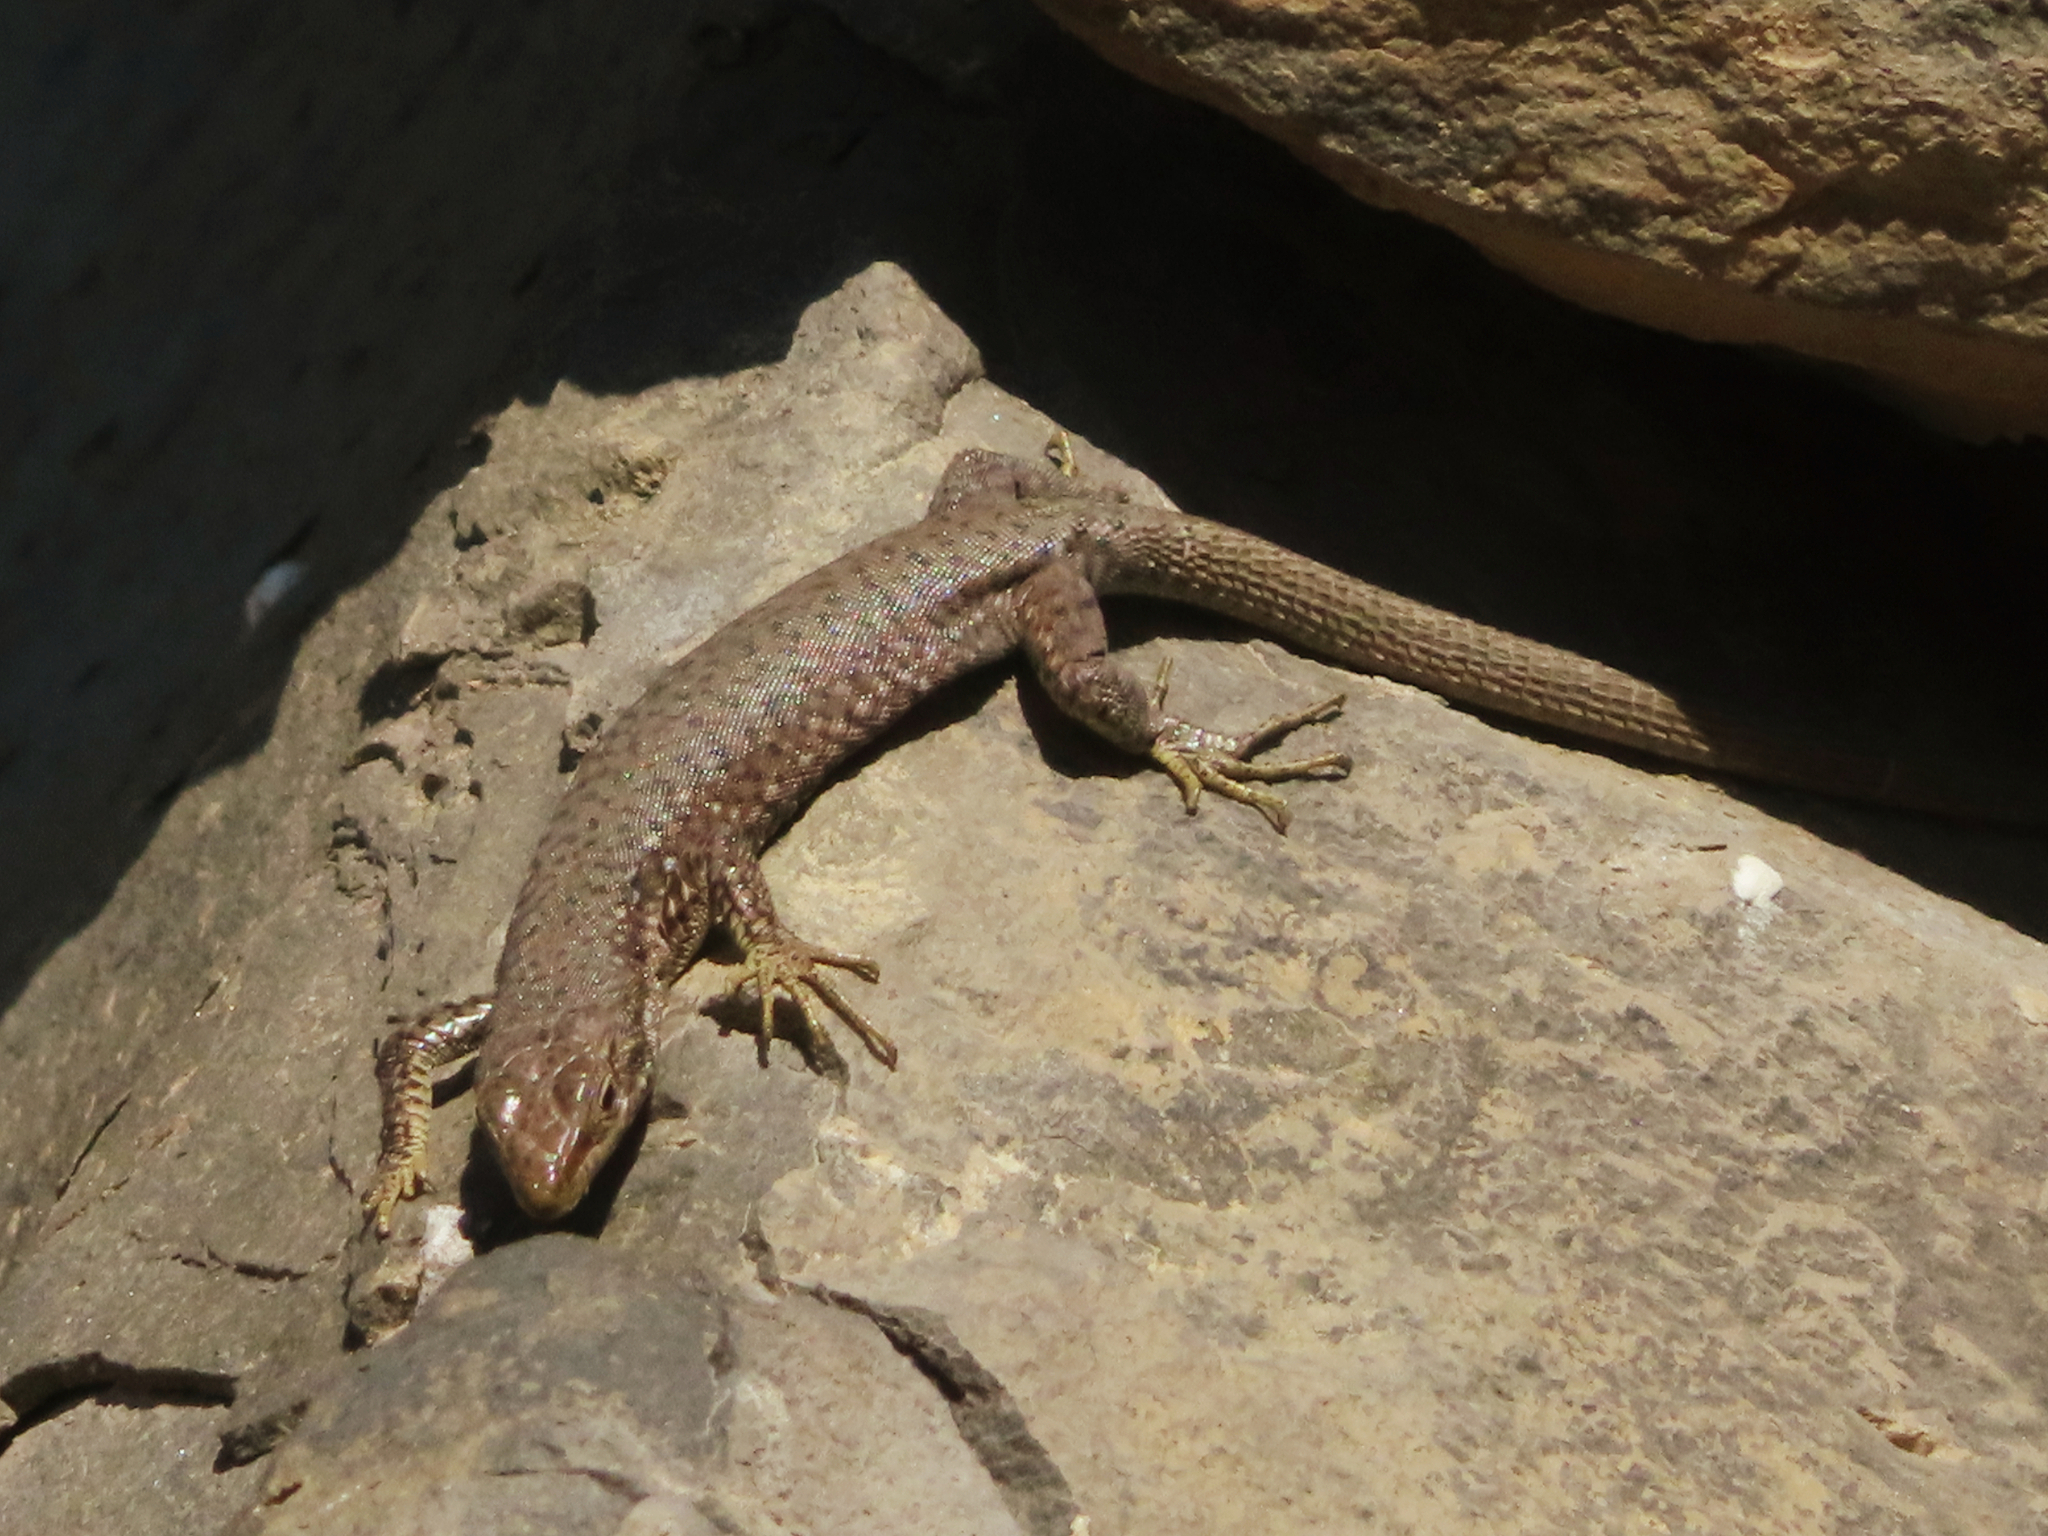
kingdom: Animalia
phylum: Chordata
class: Squamata
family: Lacertidae
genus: Darevskia
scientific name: Darevskia
